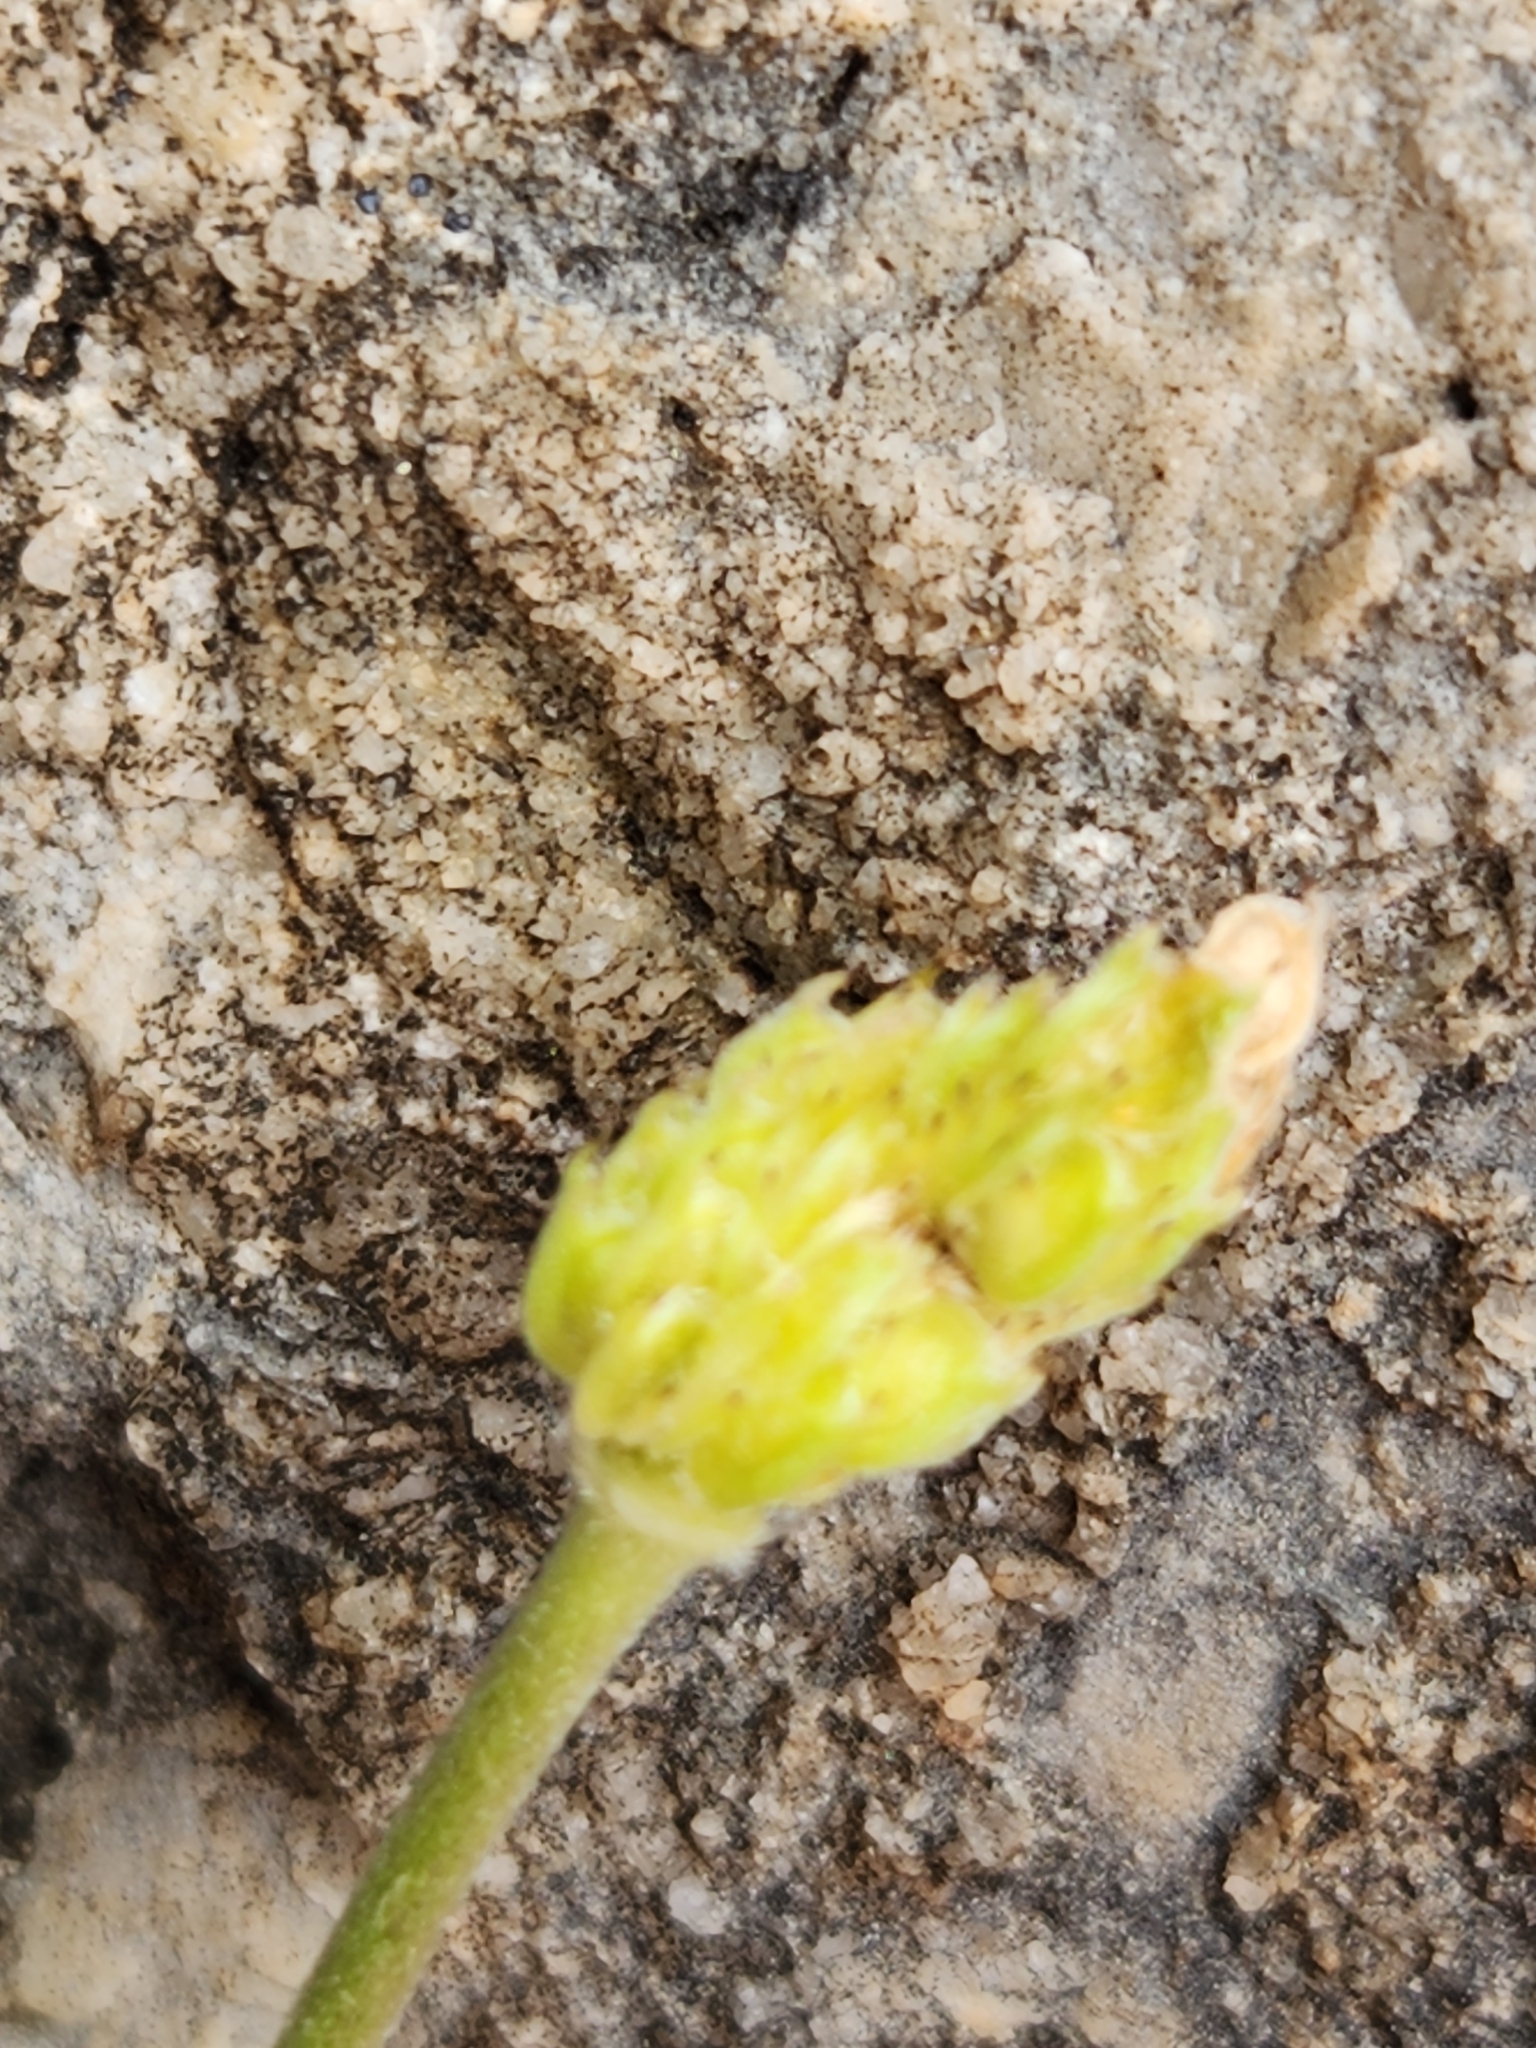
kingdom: Plantae
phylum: Tracheophyta
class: Magnoliopsida
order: Ranunculales
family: Ranunculaceae
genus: Anemone
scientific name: Anemone edwardsiana
